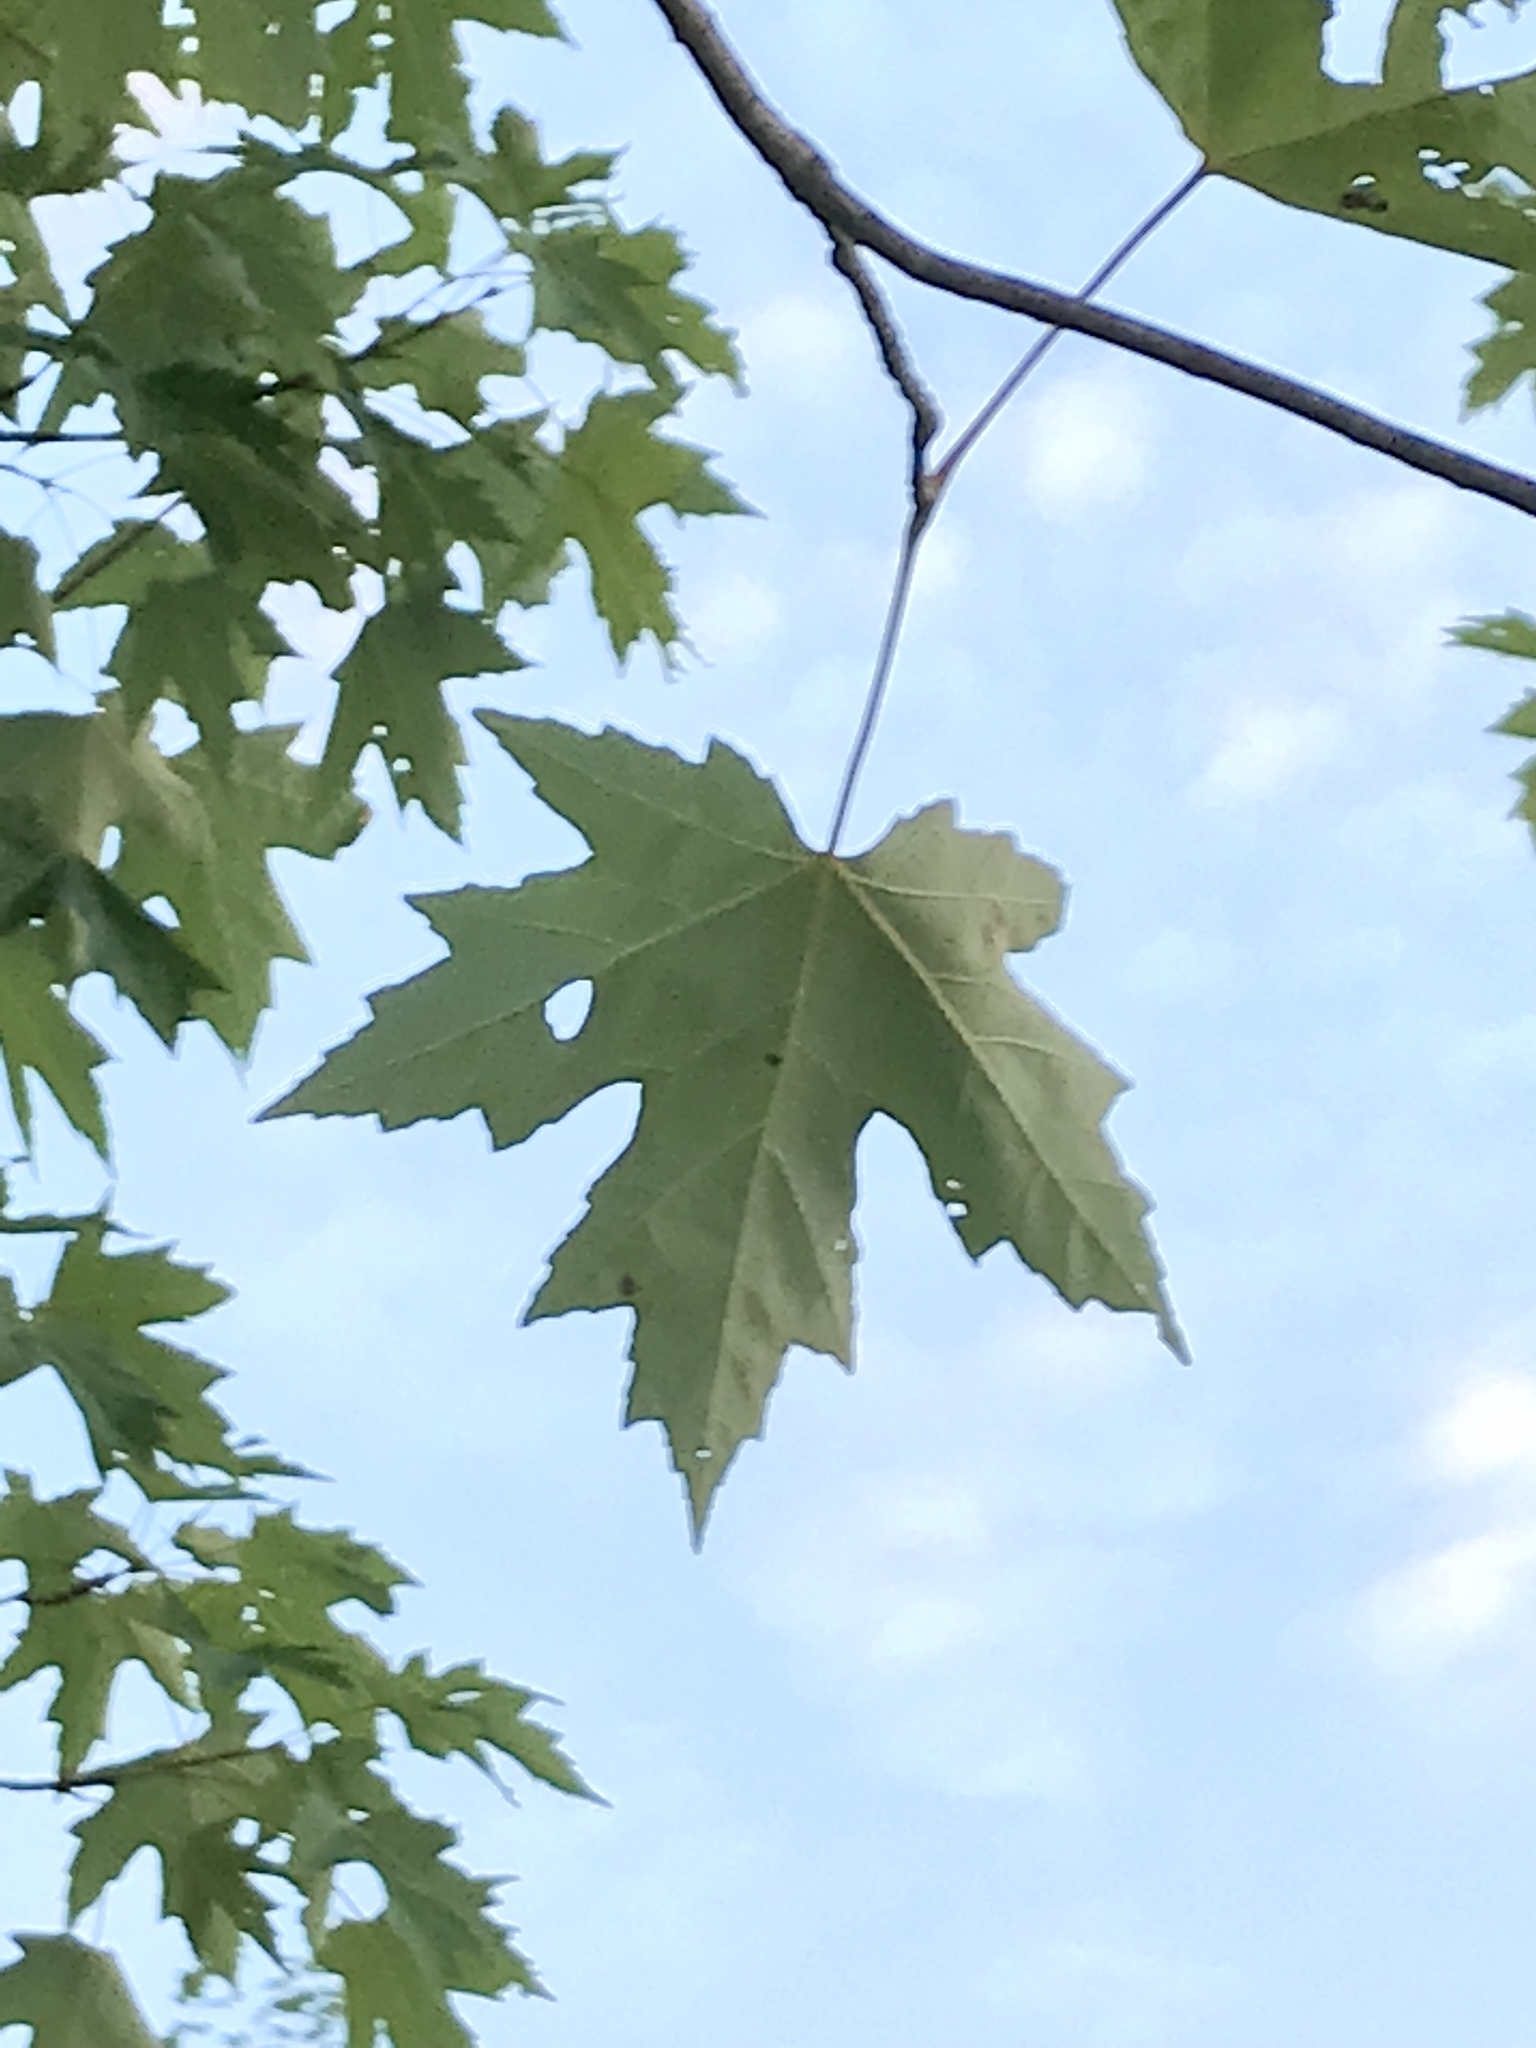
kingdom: Plantae
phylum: Tracheophyta
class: Magnoliopsida
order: Sapindales
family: Sapindaceae
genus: Acer
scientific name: Acer saccharinum
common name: Silver maple
